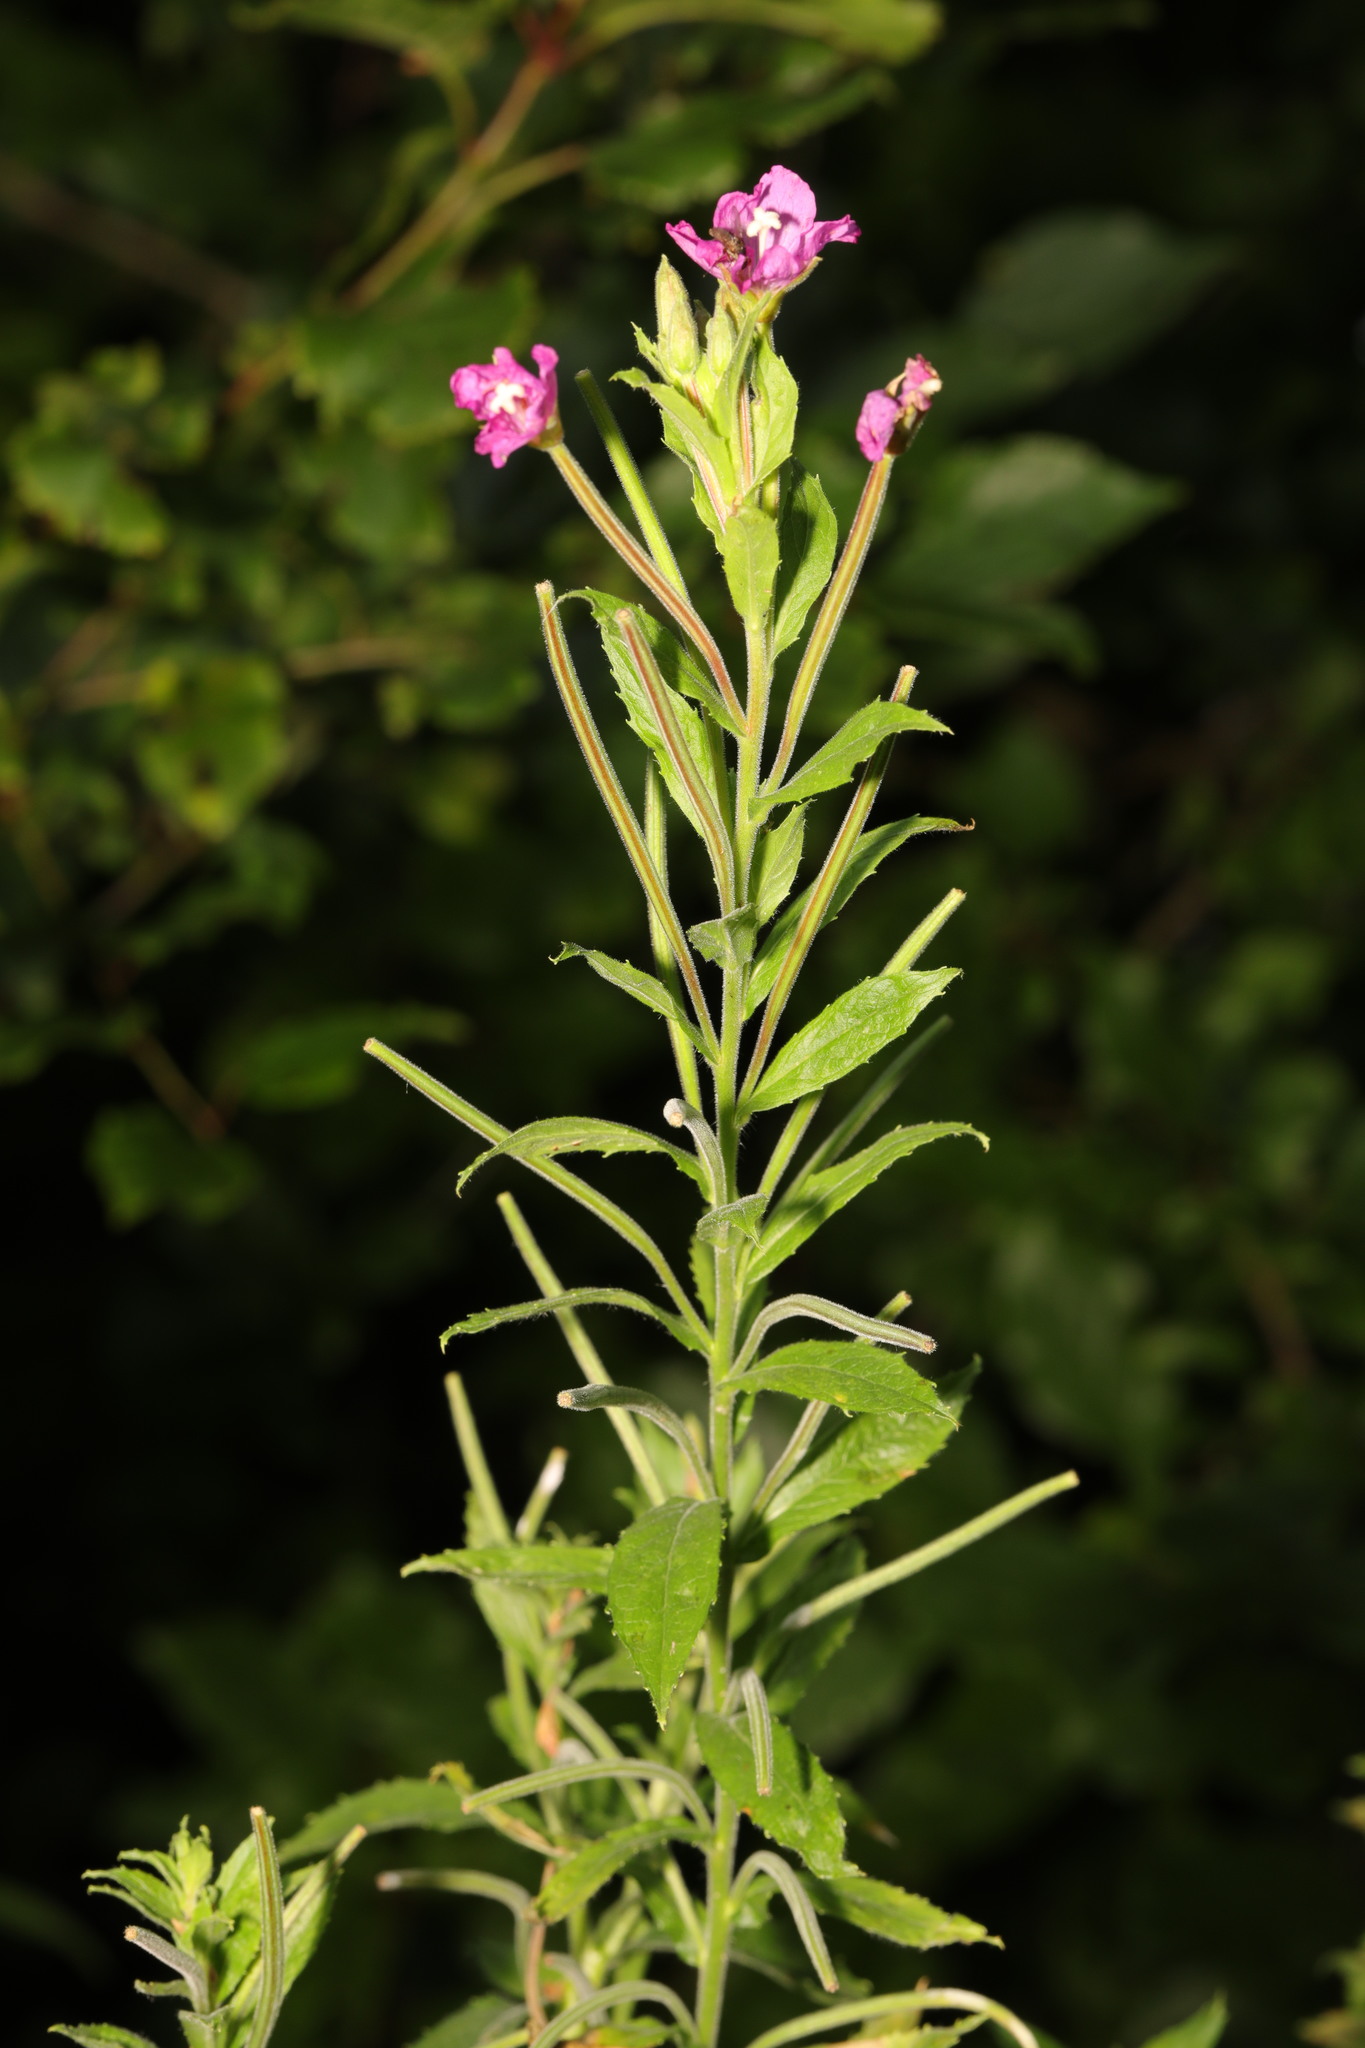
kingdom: Plantae
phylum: Tracheophyta
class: Magnoliopsida
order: Myrtales
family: Onagraceae
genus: Epilobium
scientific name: Epilobium hirsutum
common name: Great willowherb
